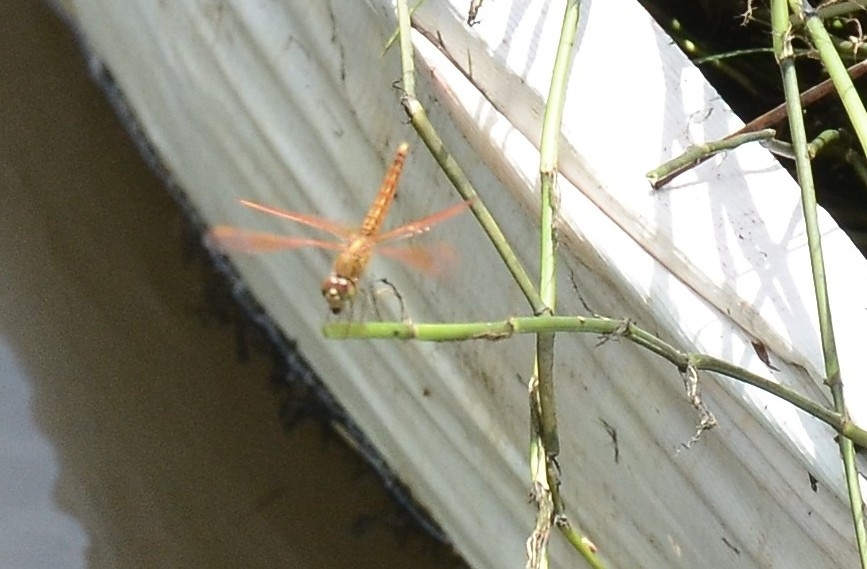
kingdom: Animalia
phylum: Arthropoda
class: Insecta
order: Odonata
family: Libellulidae
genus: Brachythemis
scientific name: Brachythemis contaminata
